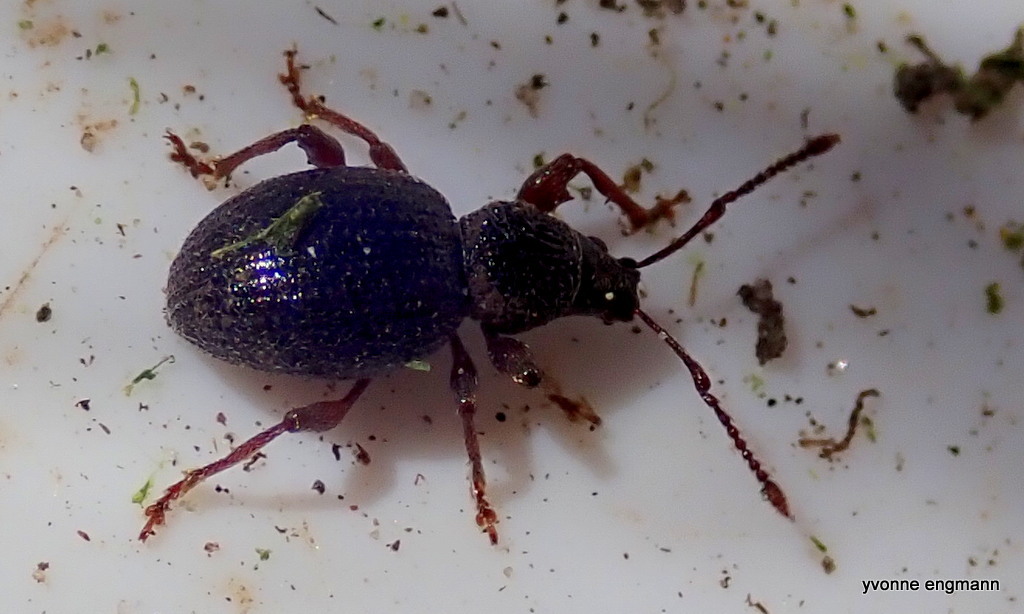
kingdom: Animalia
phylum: Arthropoda
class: Insecta
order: Coleoptera
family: Curculionidae
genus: Otiorhynchus
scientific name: Otiorhynchus ovatus
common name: Strawberry root weevil
